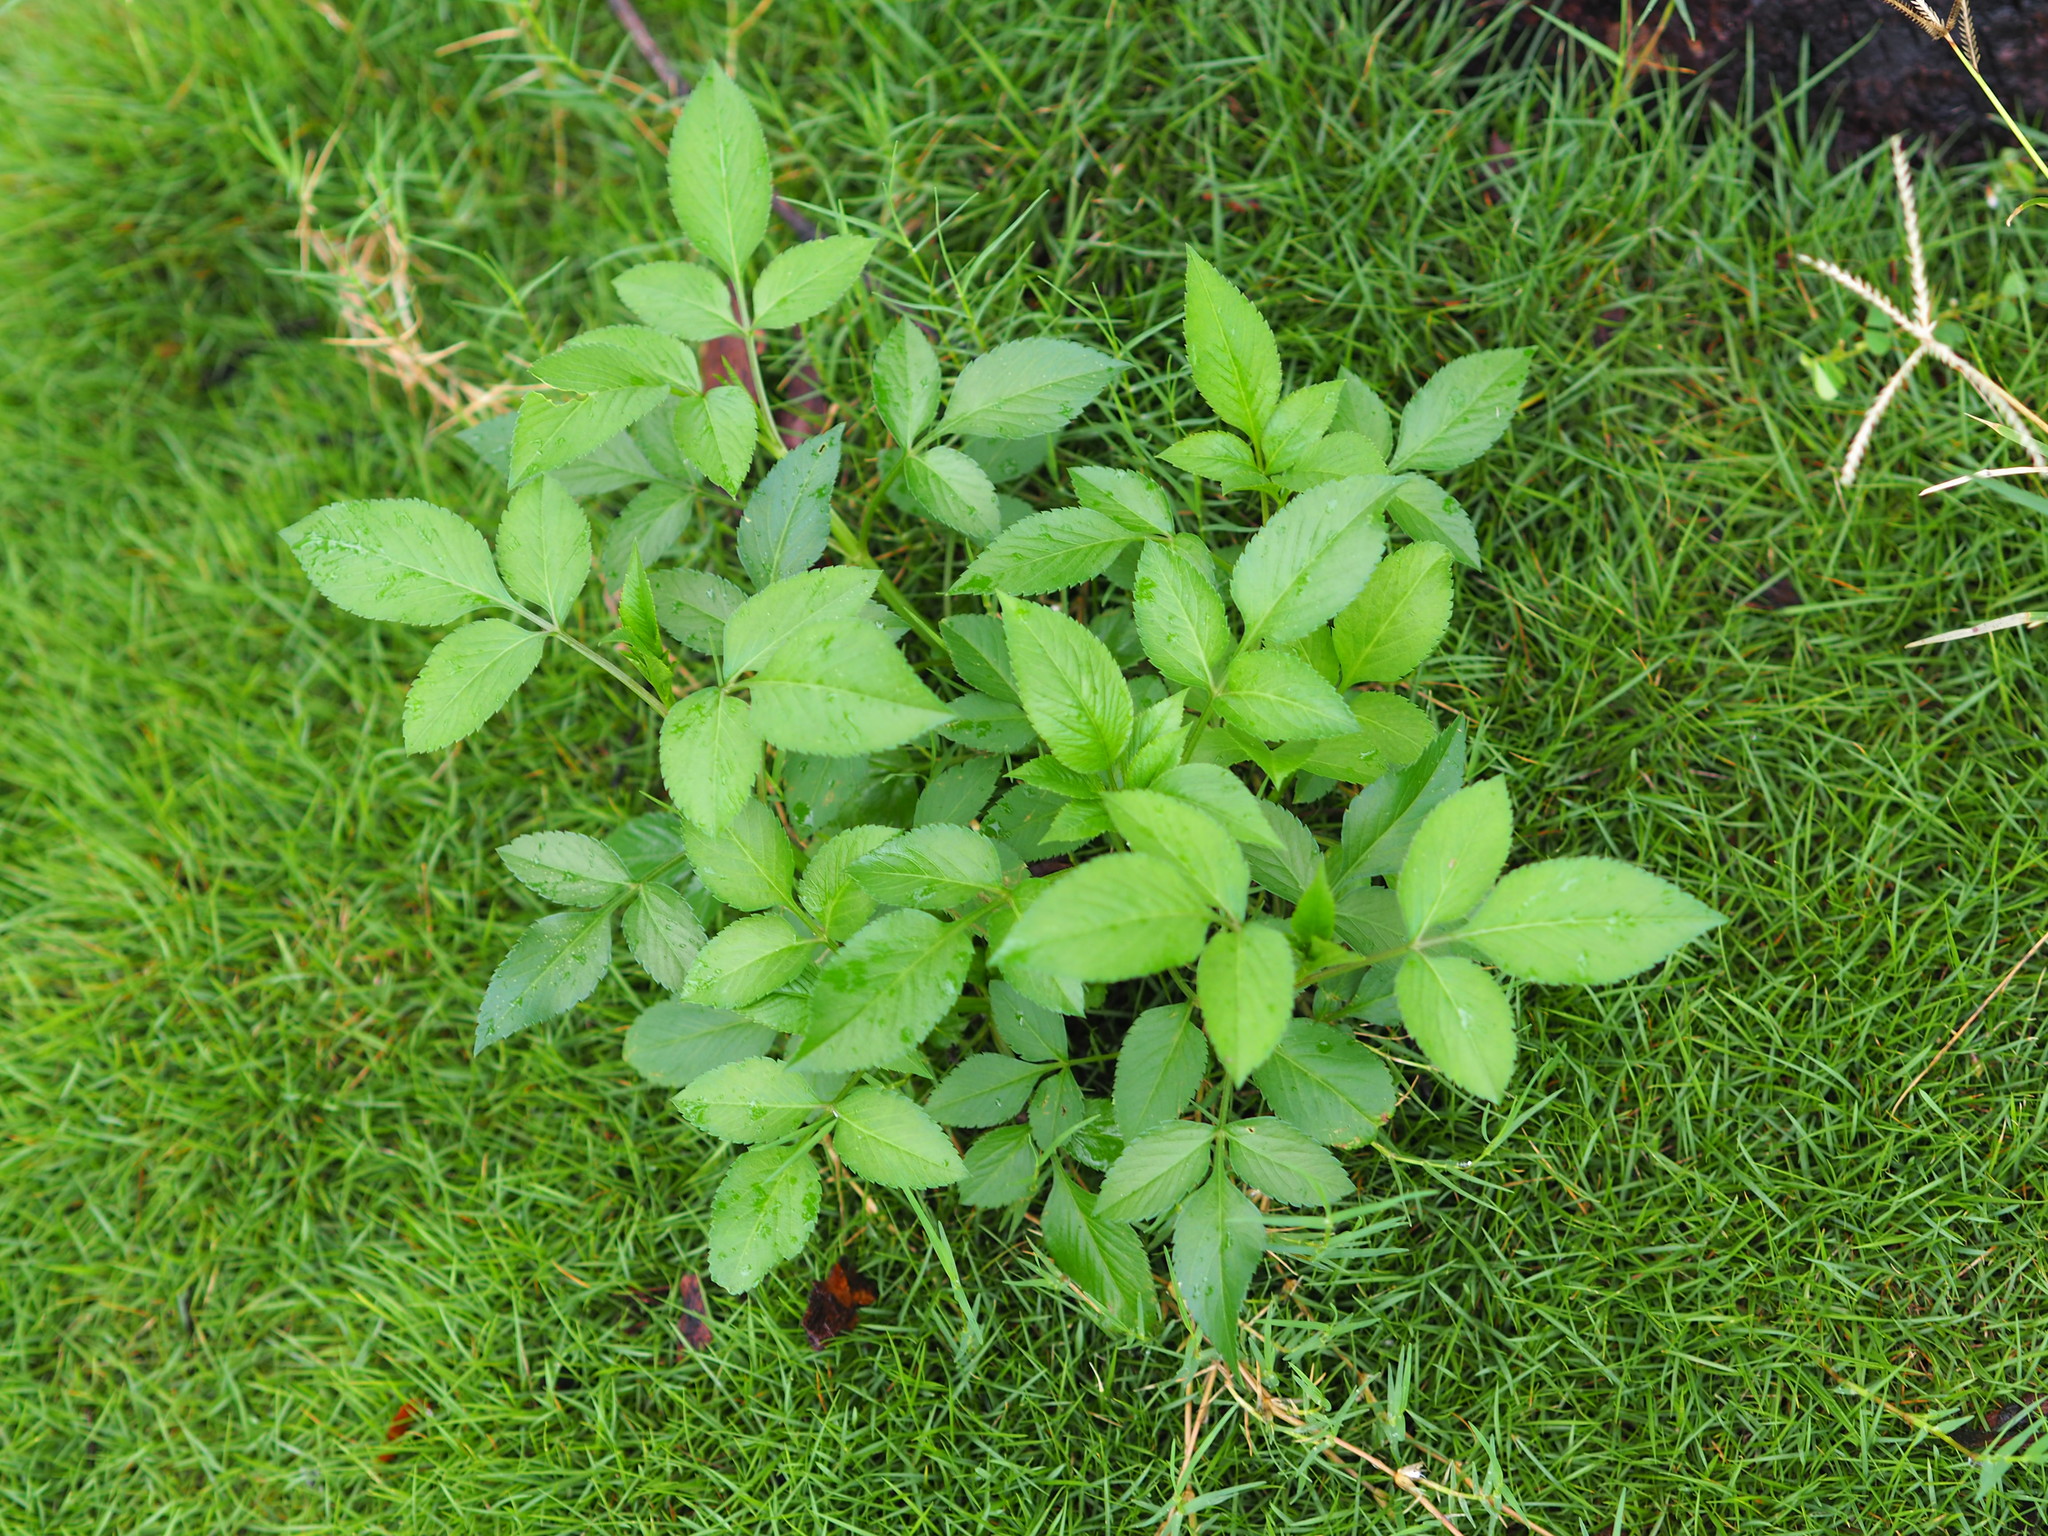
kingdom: Plantae
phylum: Tracheophyta
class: Magnoliopsida
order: Asterales
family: Asteraceae
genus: Bidens
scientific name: Bidens alba
